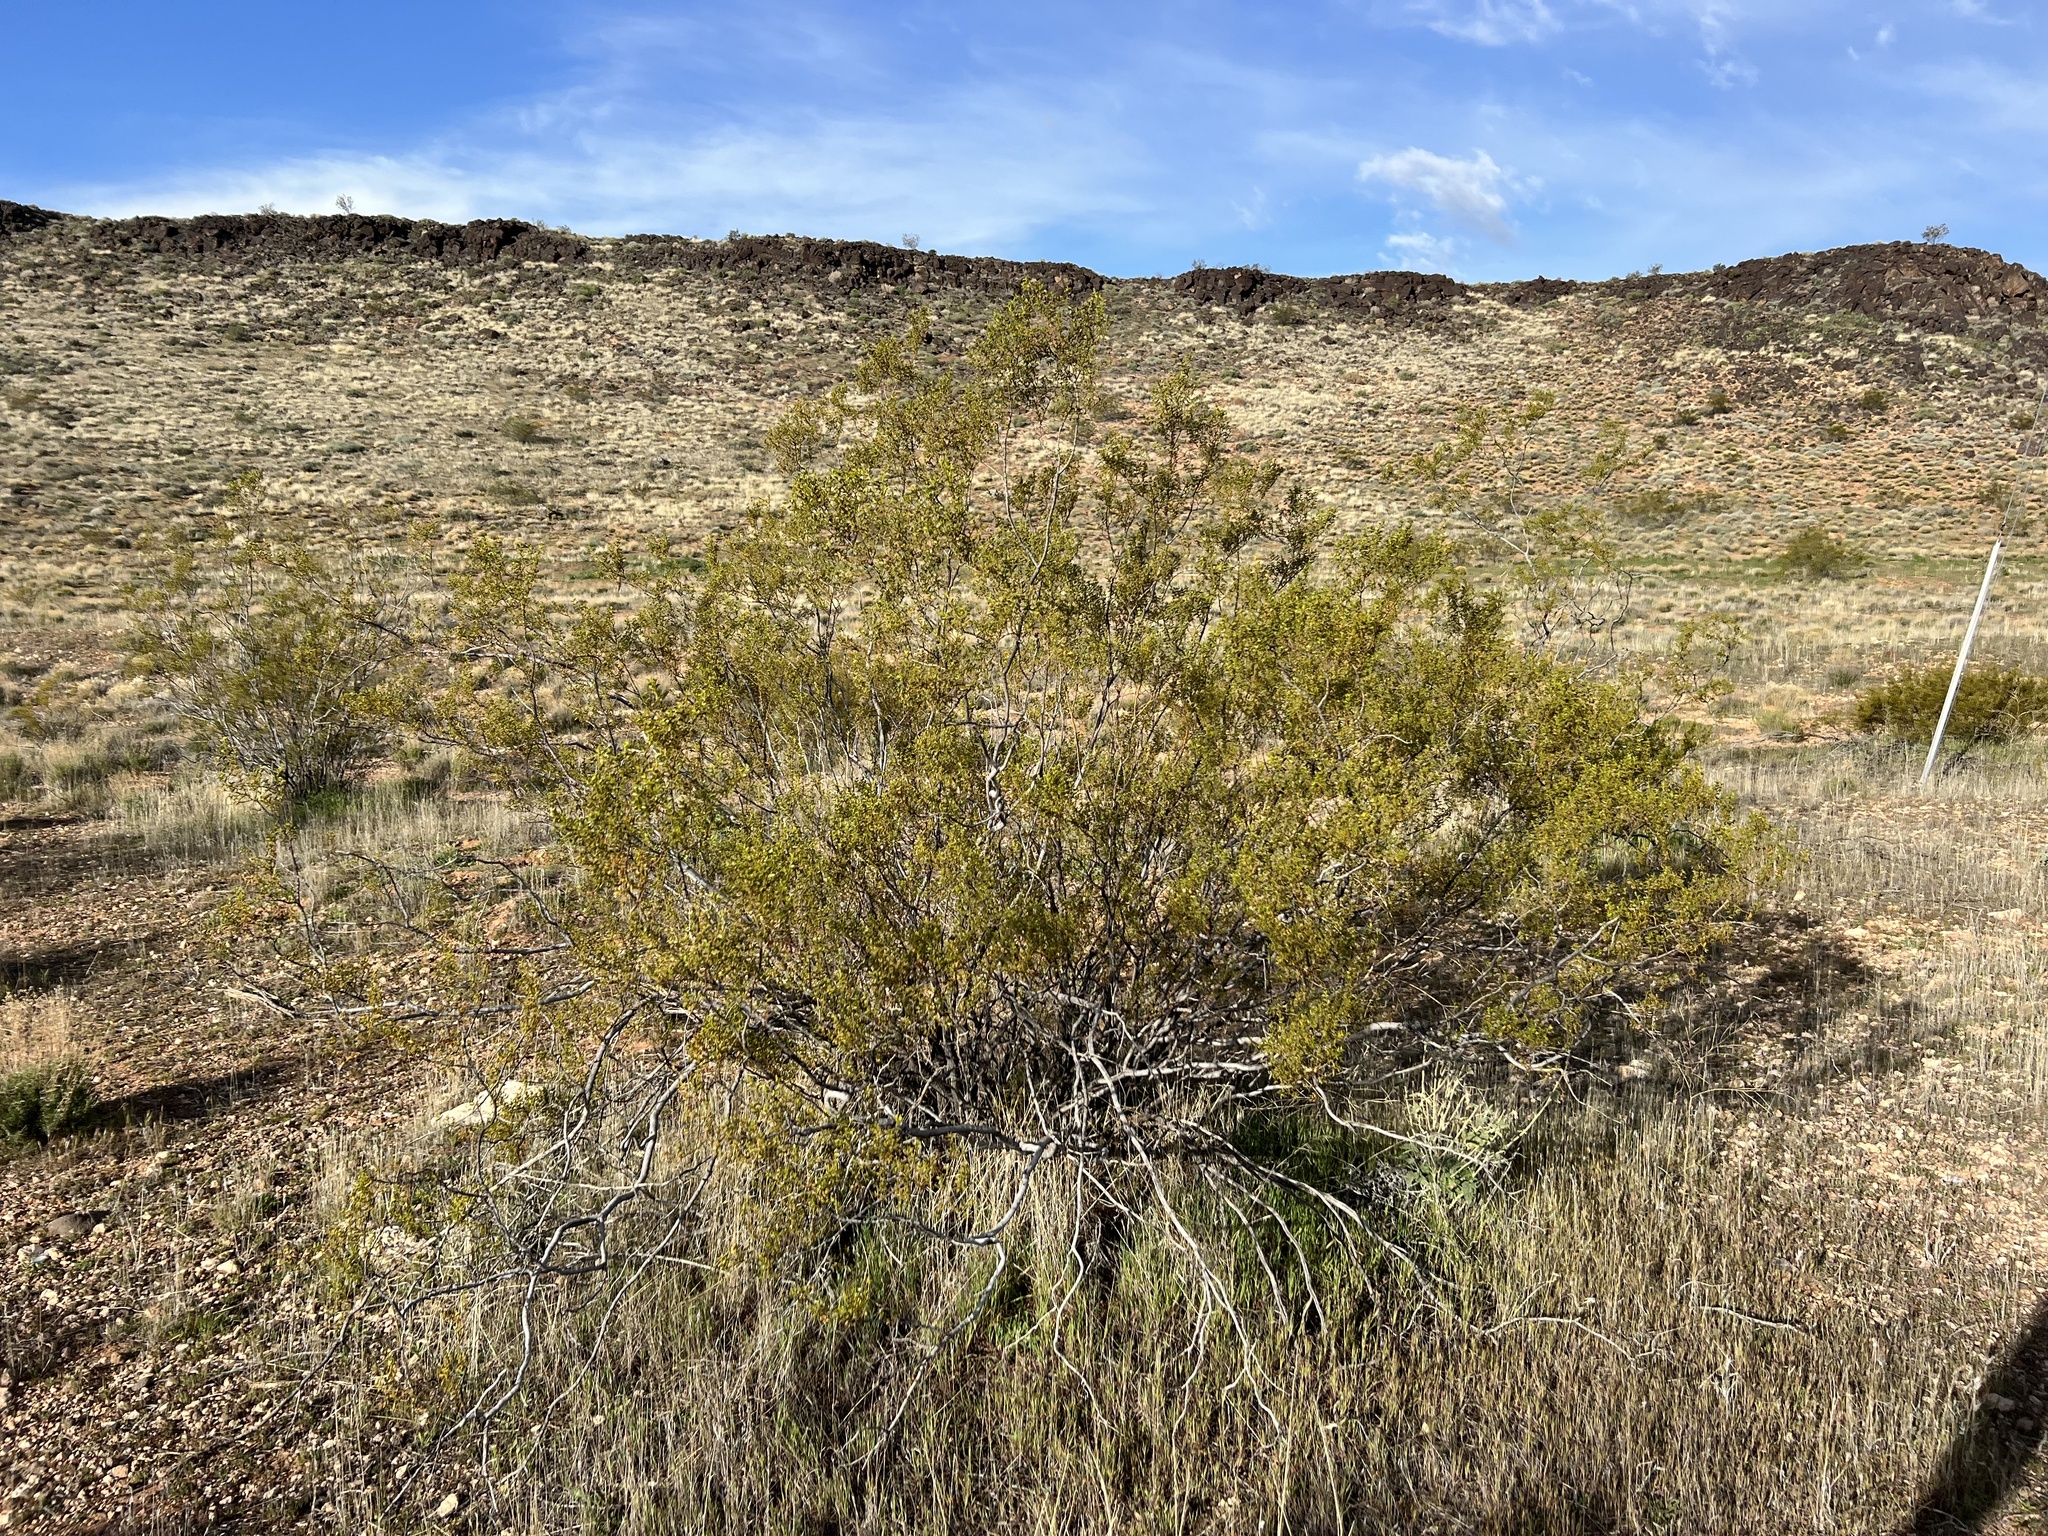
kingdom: Plantae
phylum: Tracheophyta
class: Magnoliopsida
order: Zygophyllales
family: Zygophyllaceae
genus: Larrea
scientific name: Larrea tridentata
